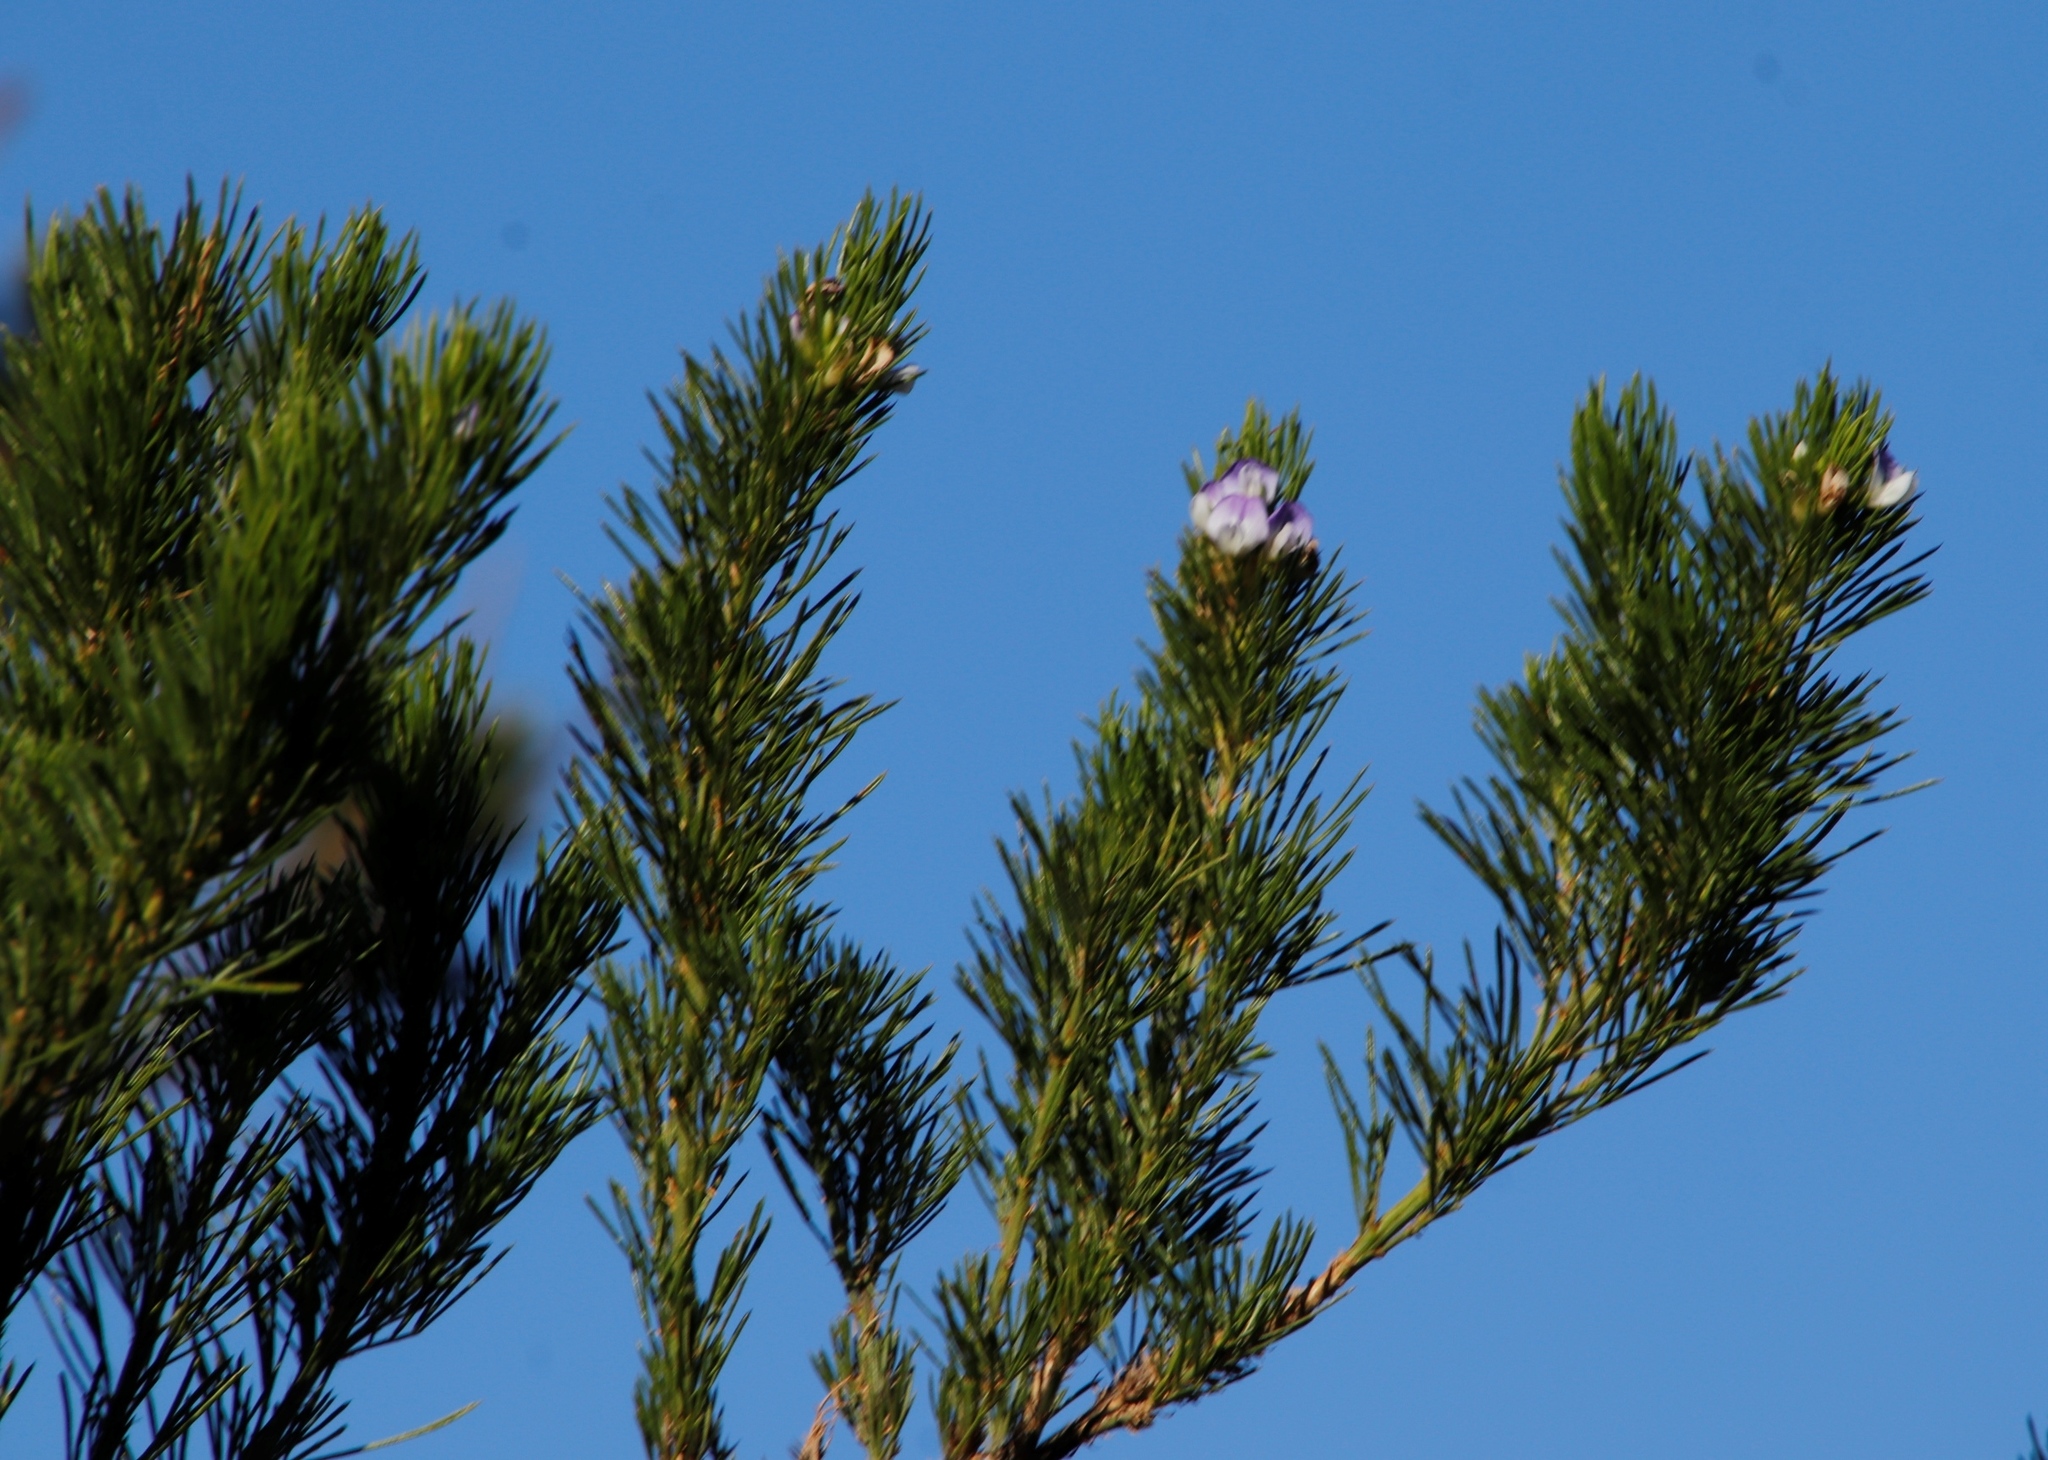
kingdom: Plantae
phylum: Tracheophyta
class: Magnoliopsida
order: Fabales
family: Fabaceae
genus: Psoralea
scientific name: Psoralea pinnata
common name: African scurfpea
